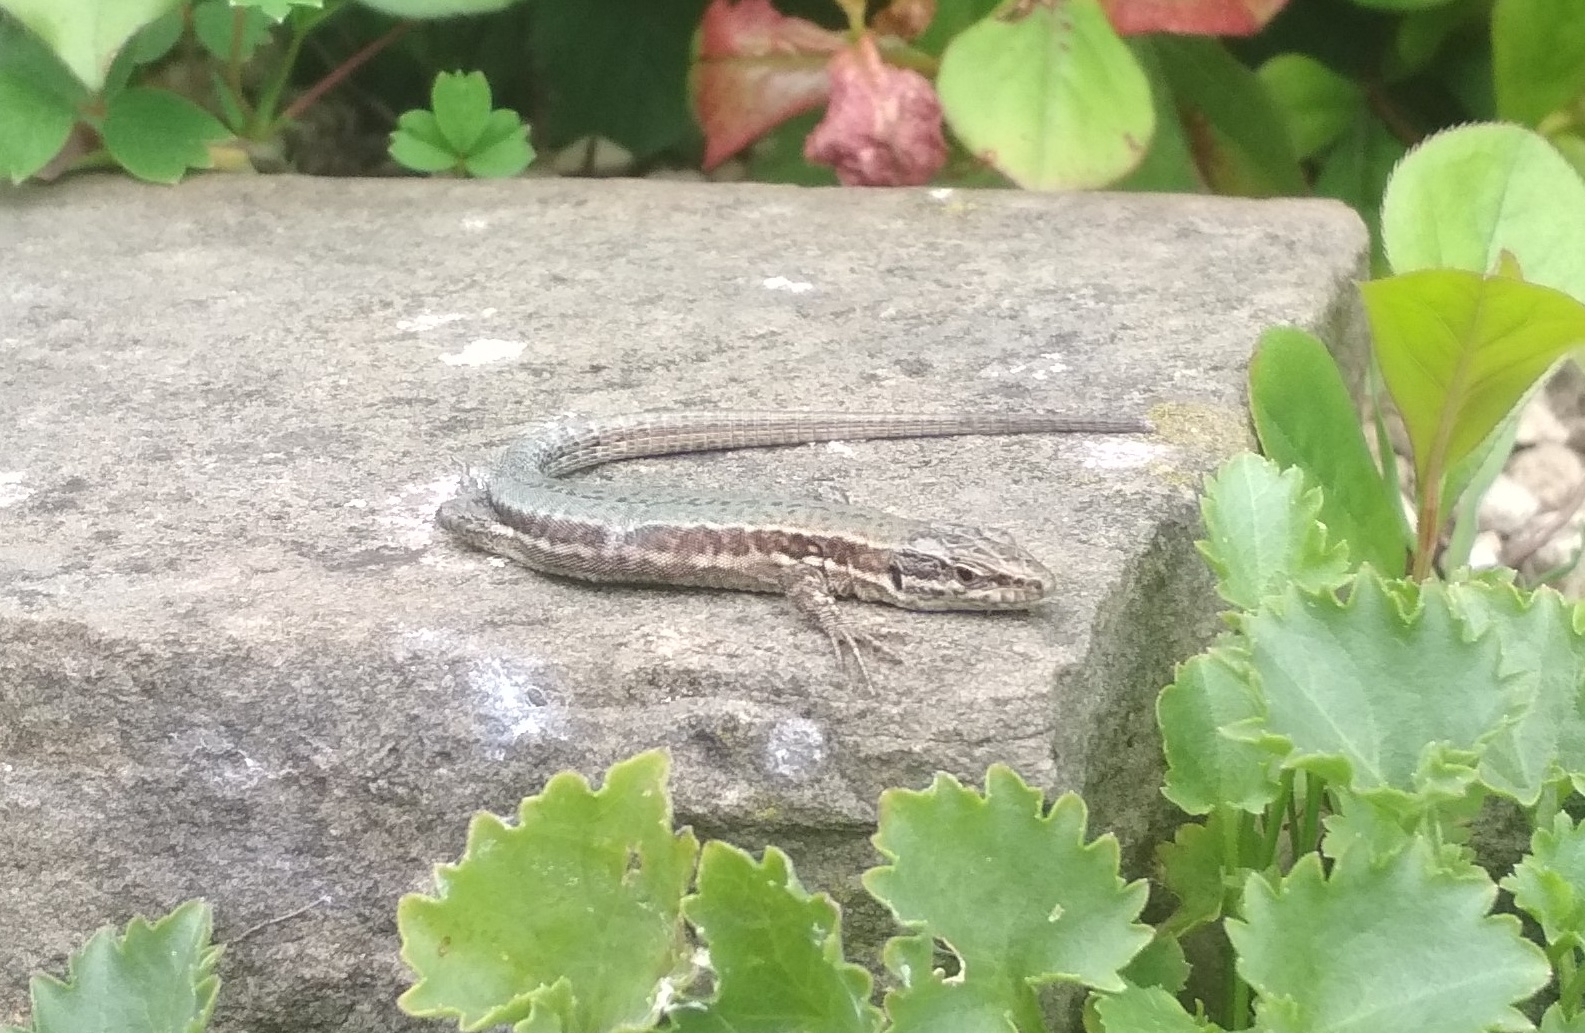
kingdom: Animalia
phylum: Chordata
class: Squamata
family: Lacertidae
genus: Podarcis
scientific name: Podarcis muralis
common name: Common wall lizard
